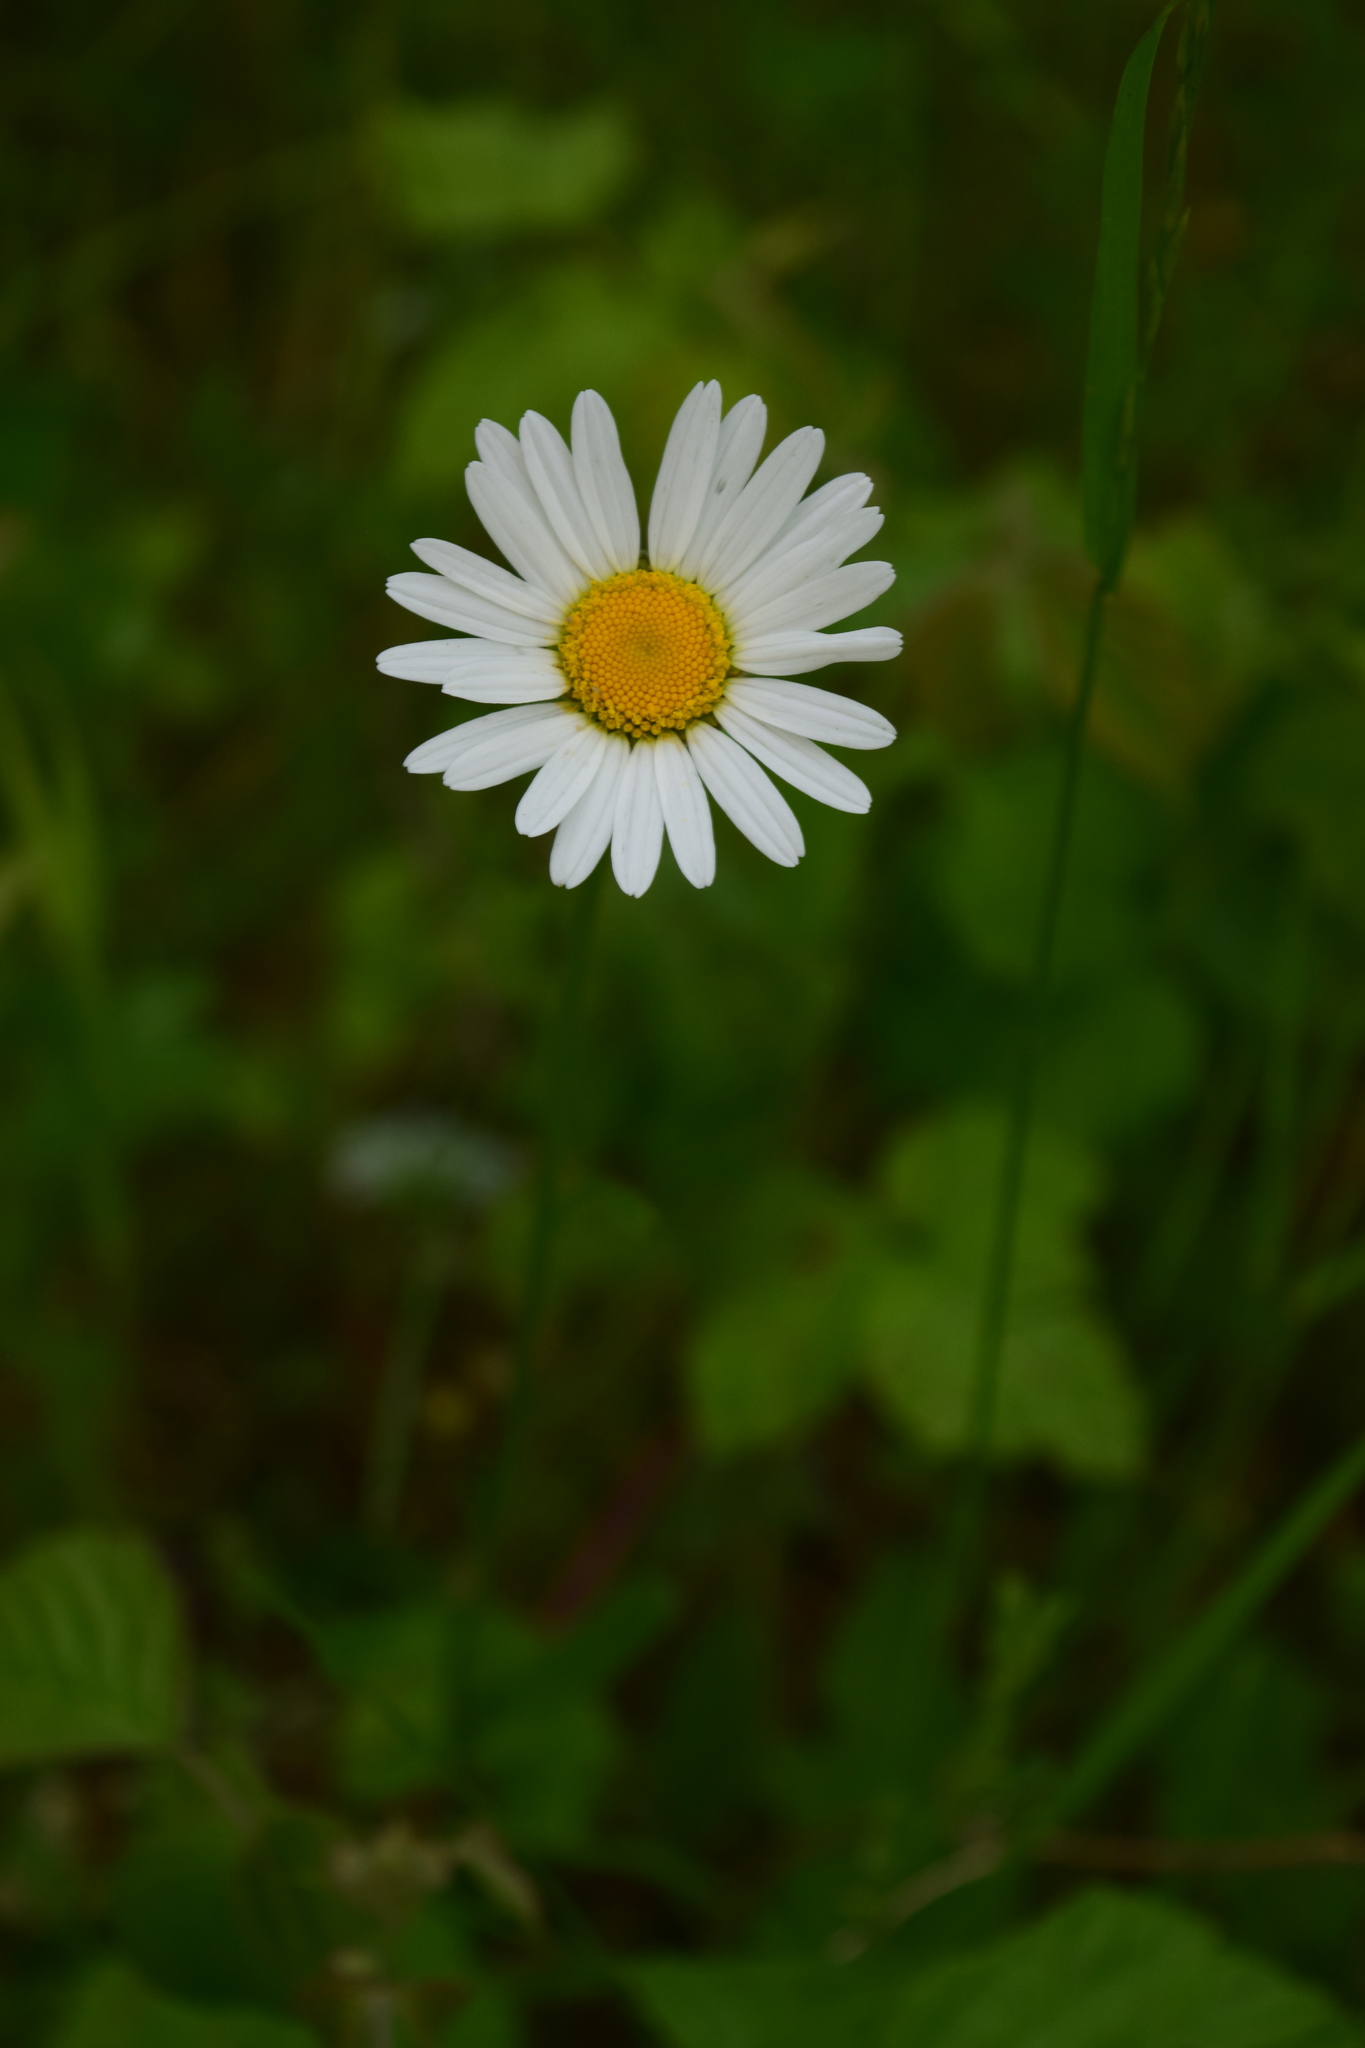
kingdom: Plantae
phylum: Tracheophyta
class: Magnoliopsida
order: Asterales
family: Asteraceae
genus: Leucanthemum
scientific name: Leucanthemum vulgare
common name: Oxeye daisy
